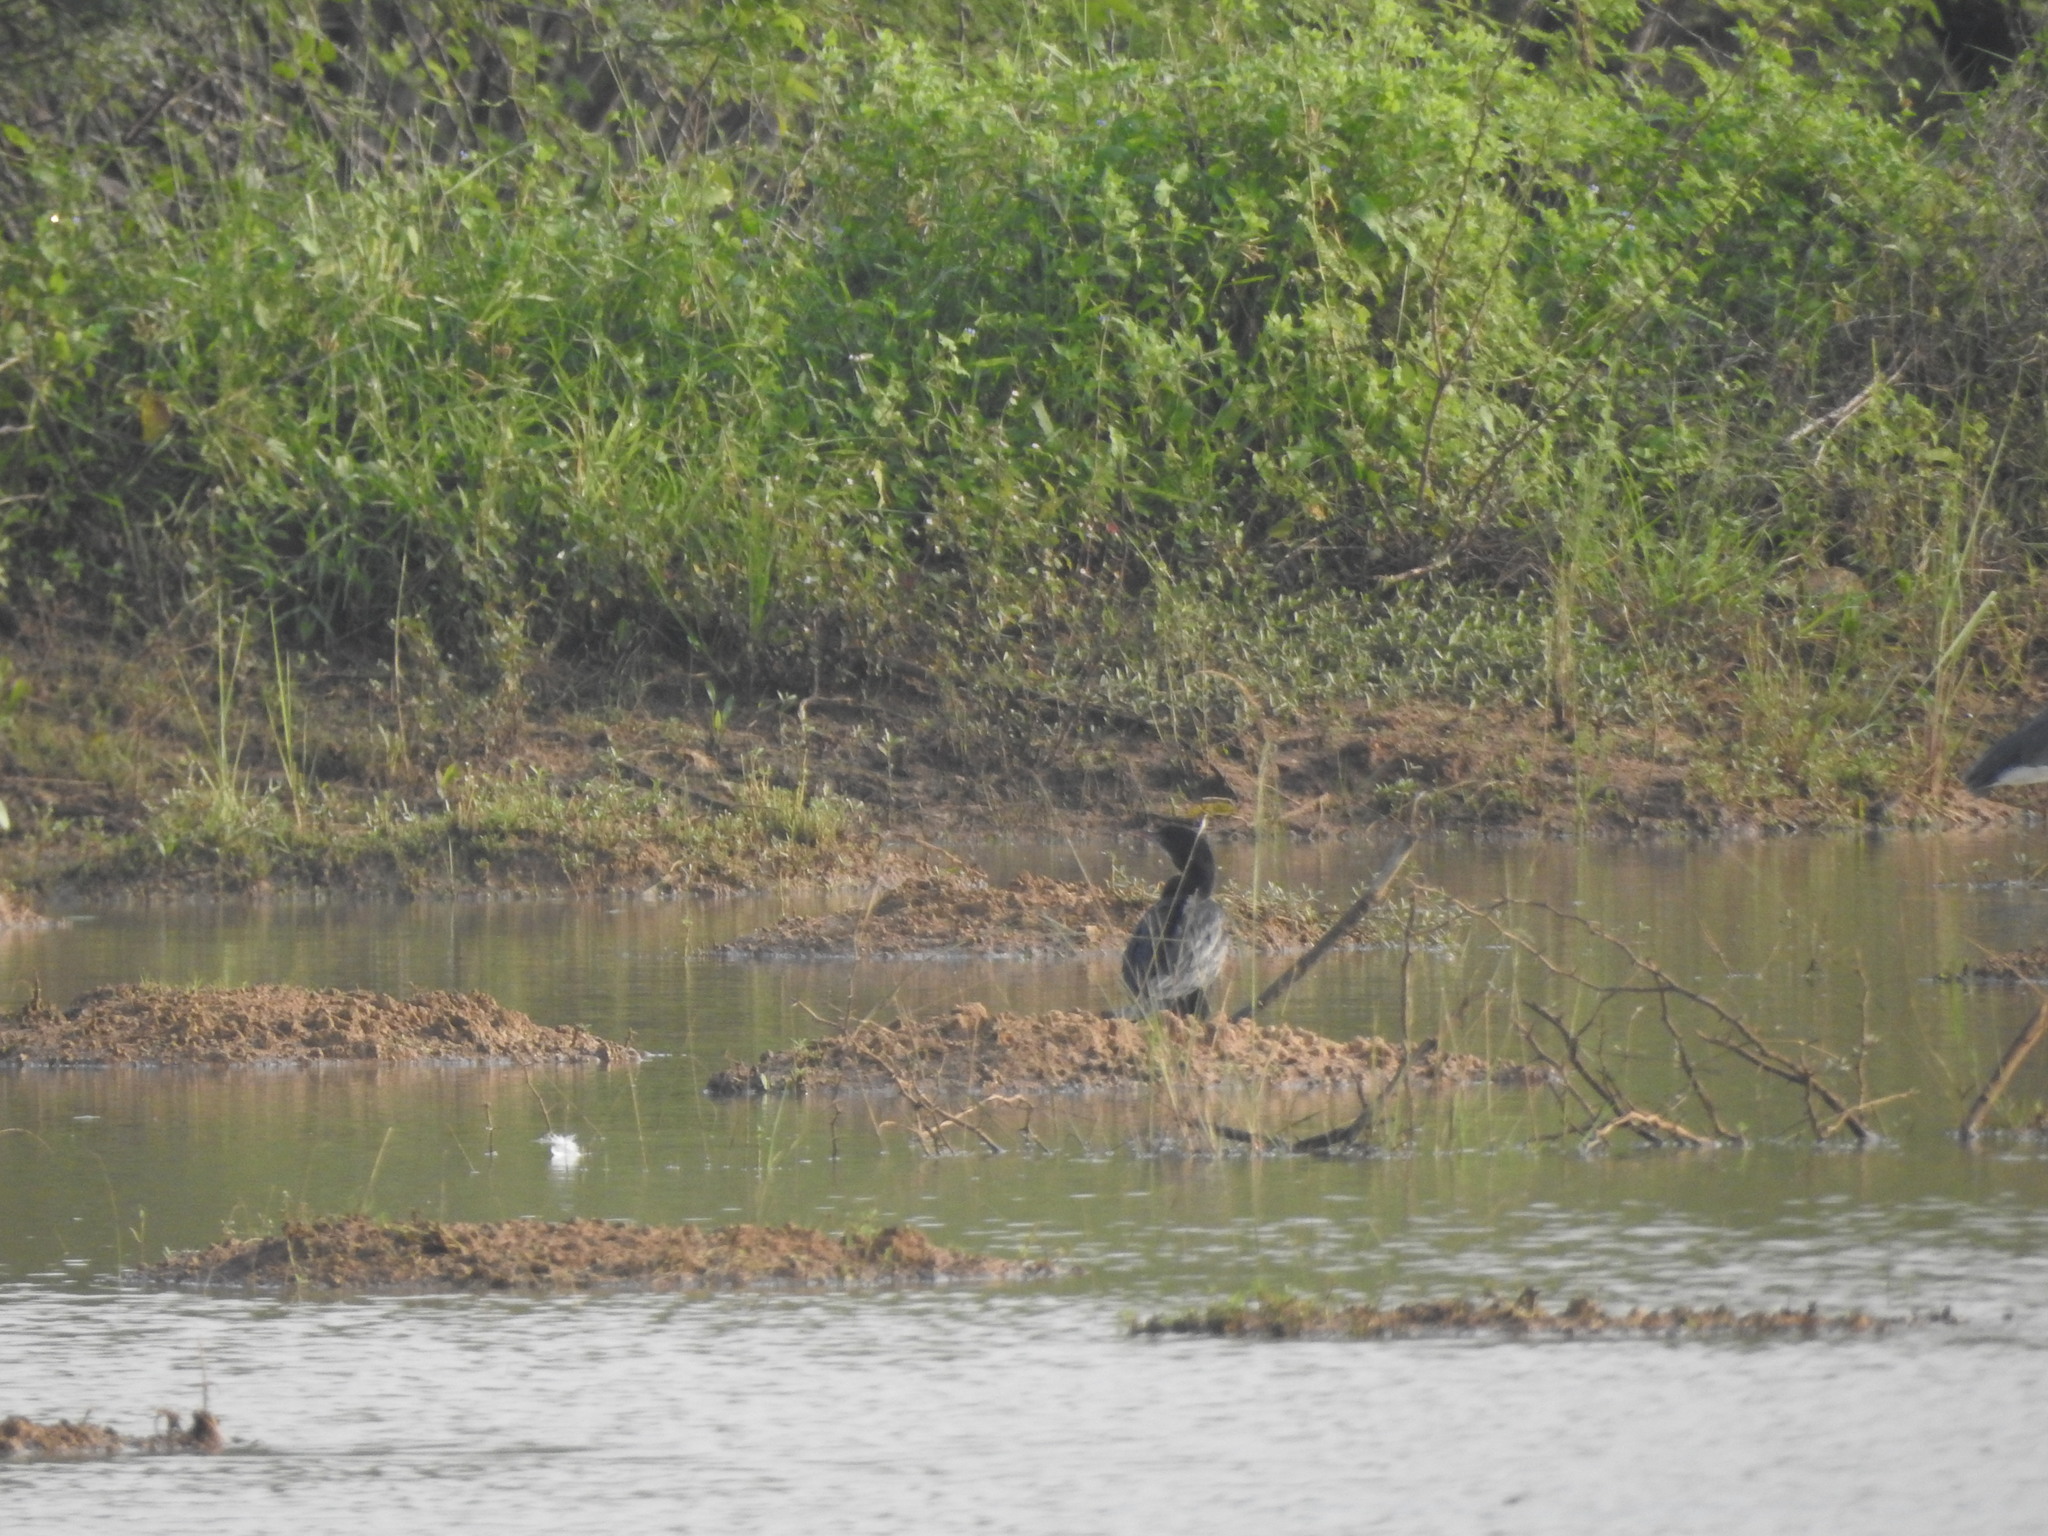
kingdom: Animalia
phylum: Chordata
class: Aves
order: Suliformes
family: Phalacrocoracidae
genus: Microcarbo
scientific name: Microcarbo niger
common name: Little cormorant
